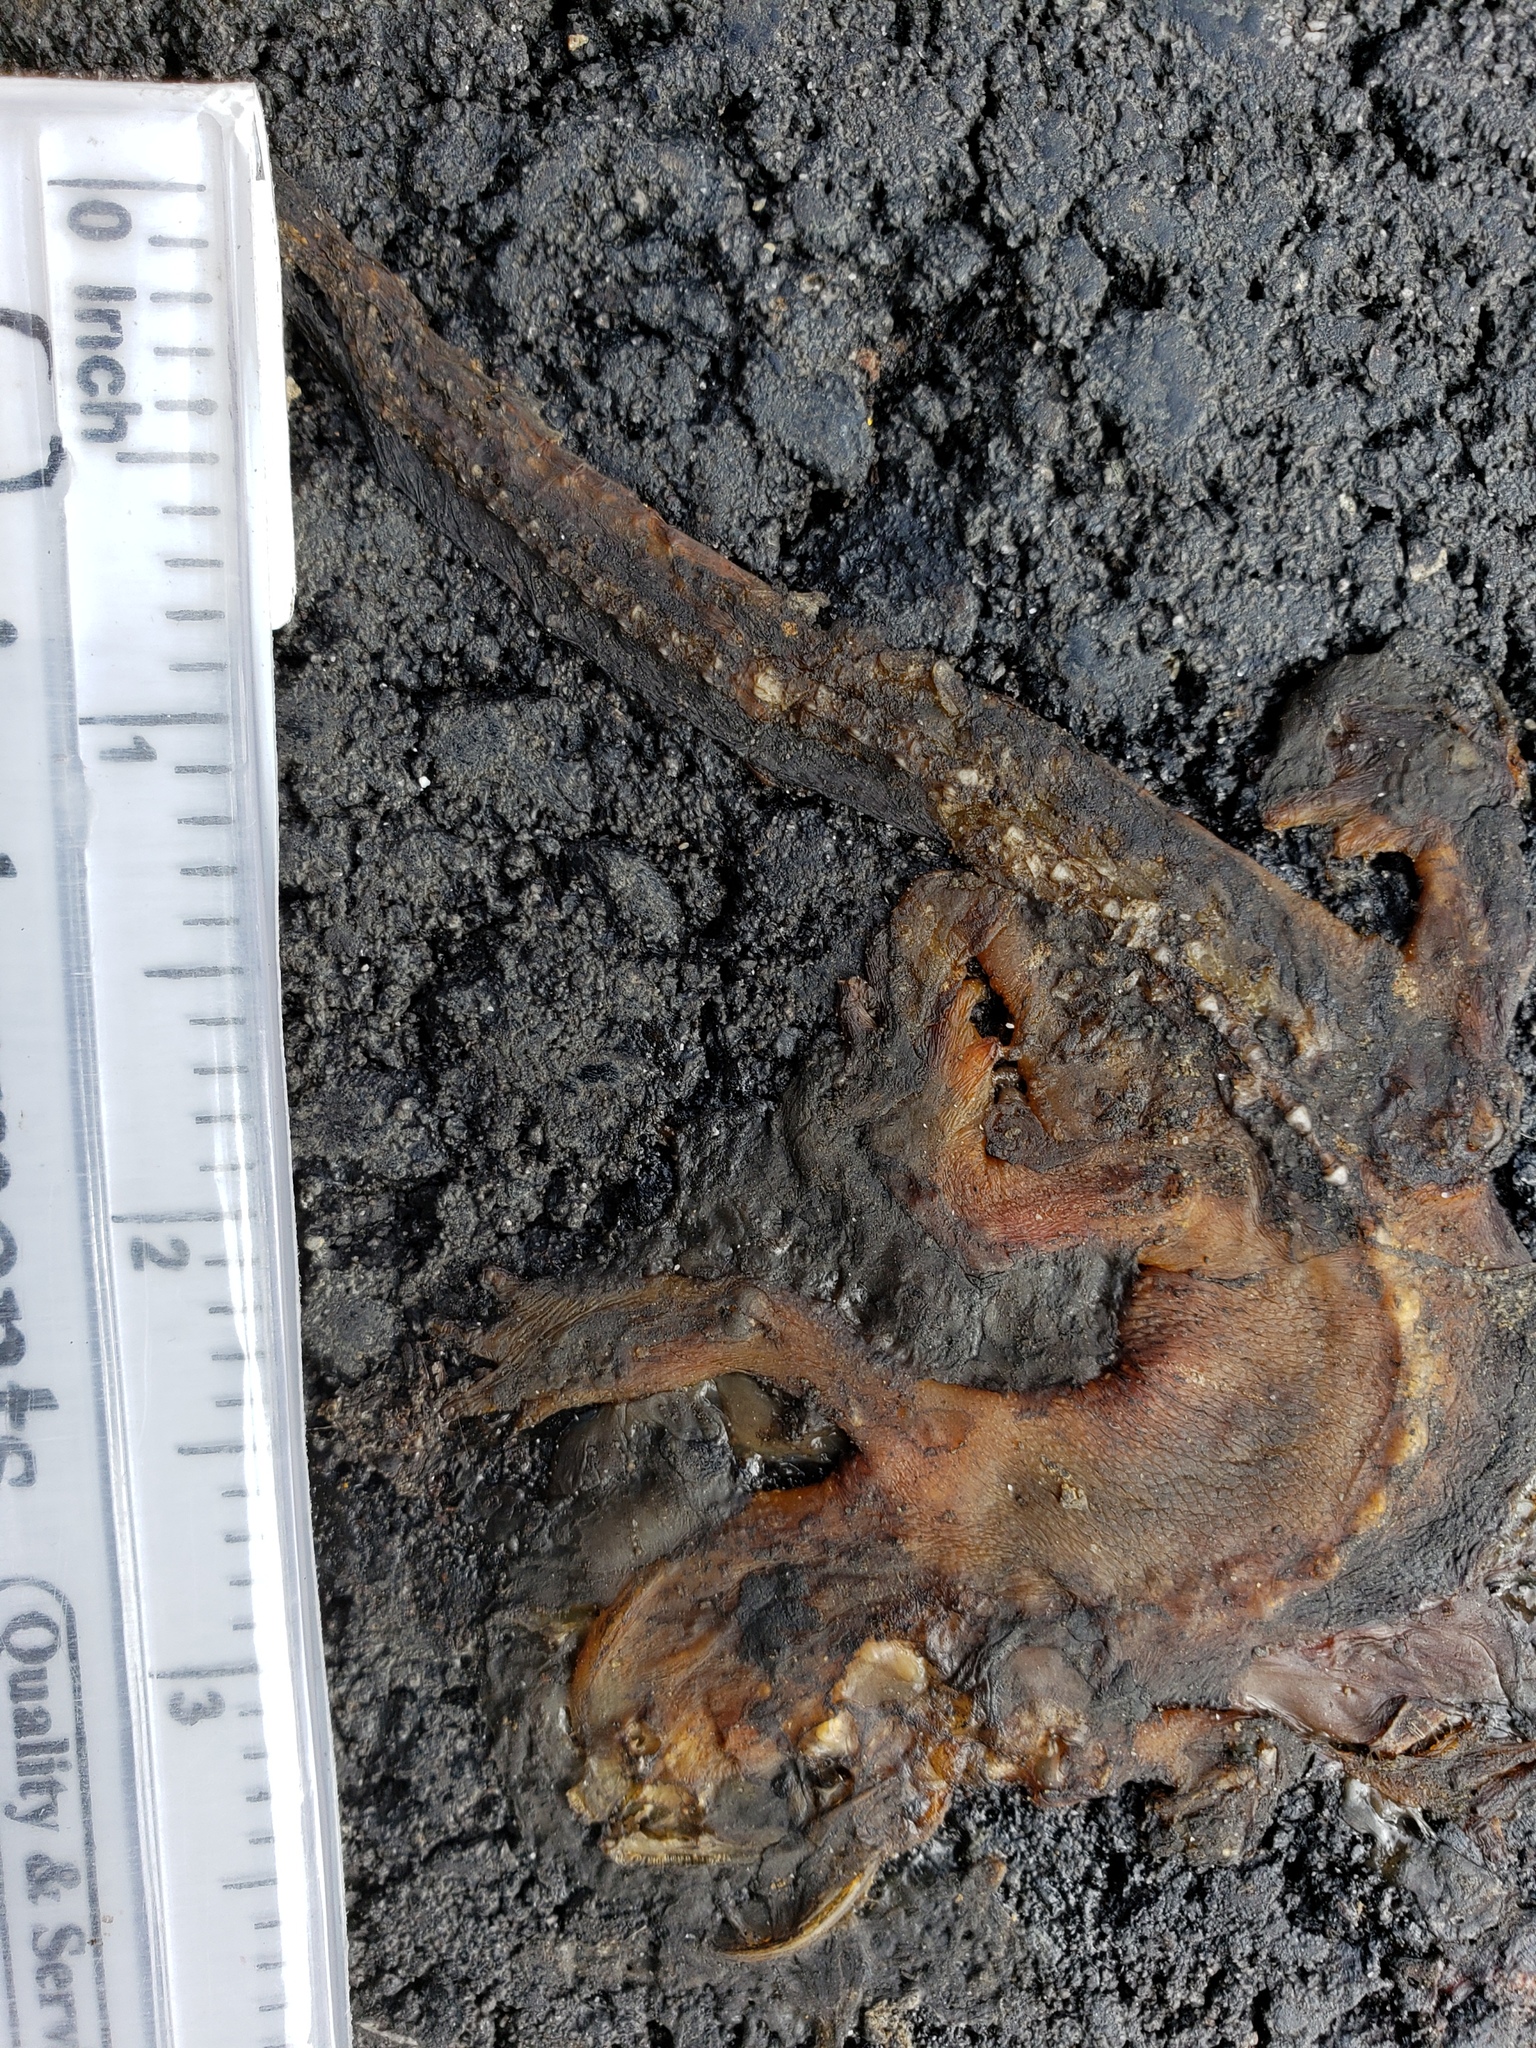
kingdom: Animalia
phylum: Chordata
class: Amphibia
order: Caudata
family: Salamandridae
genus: Taricha
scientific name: Taricha
